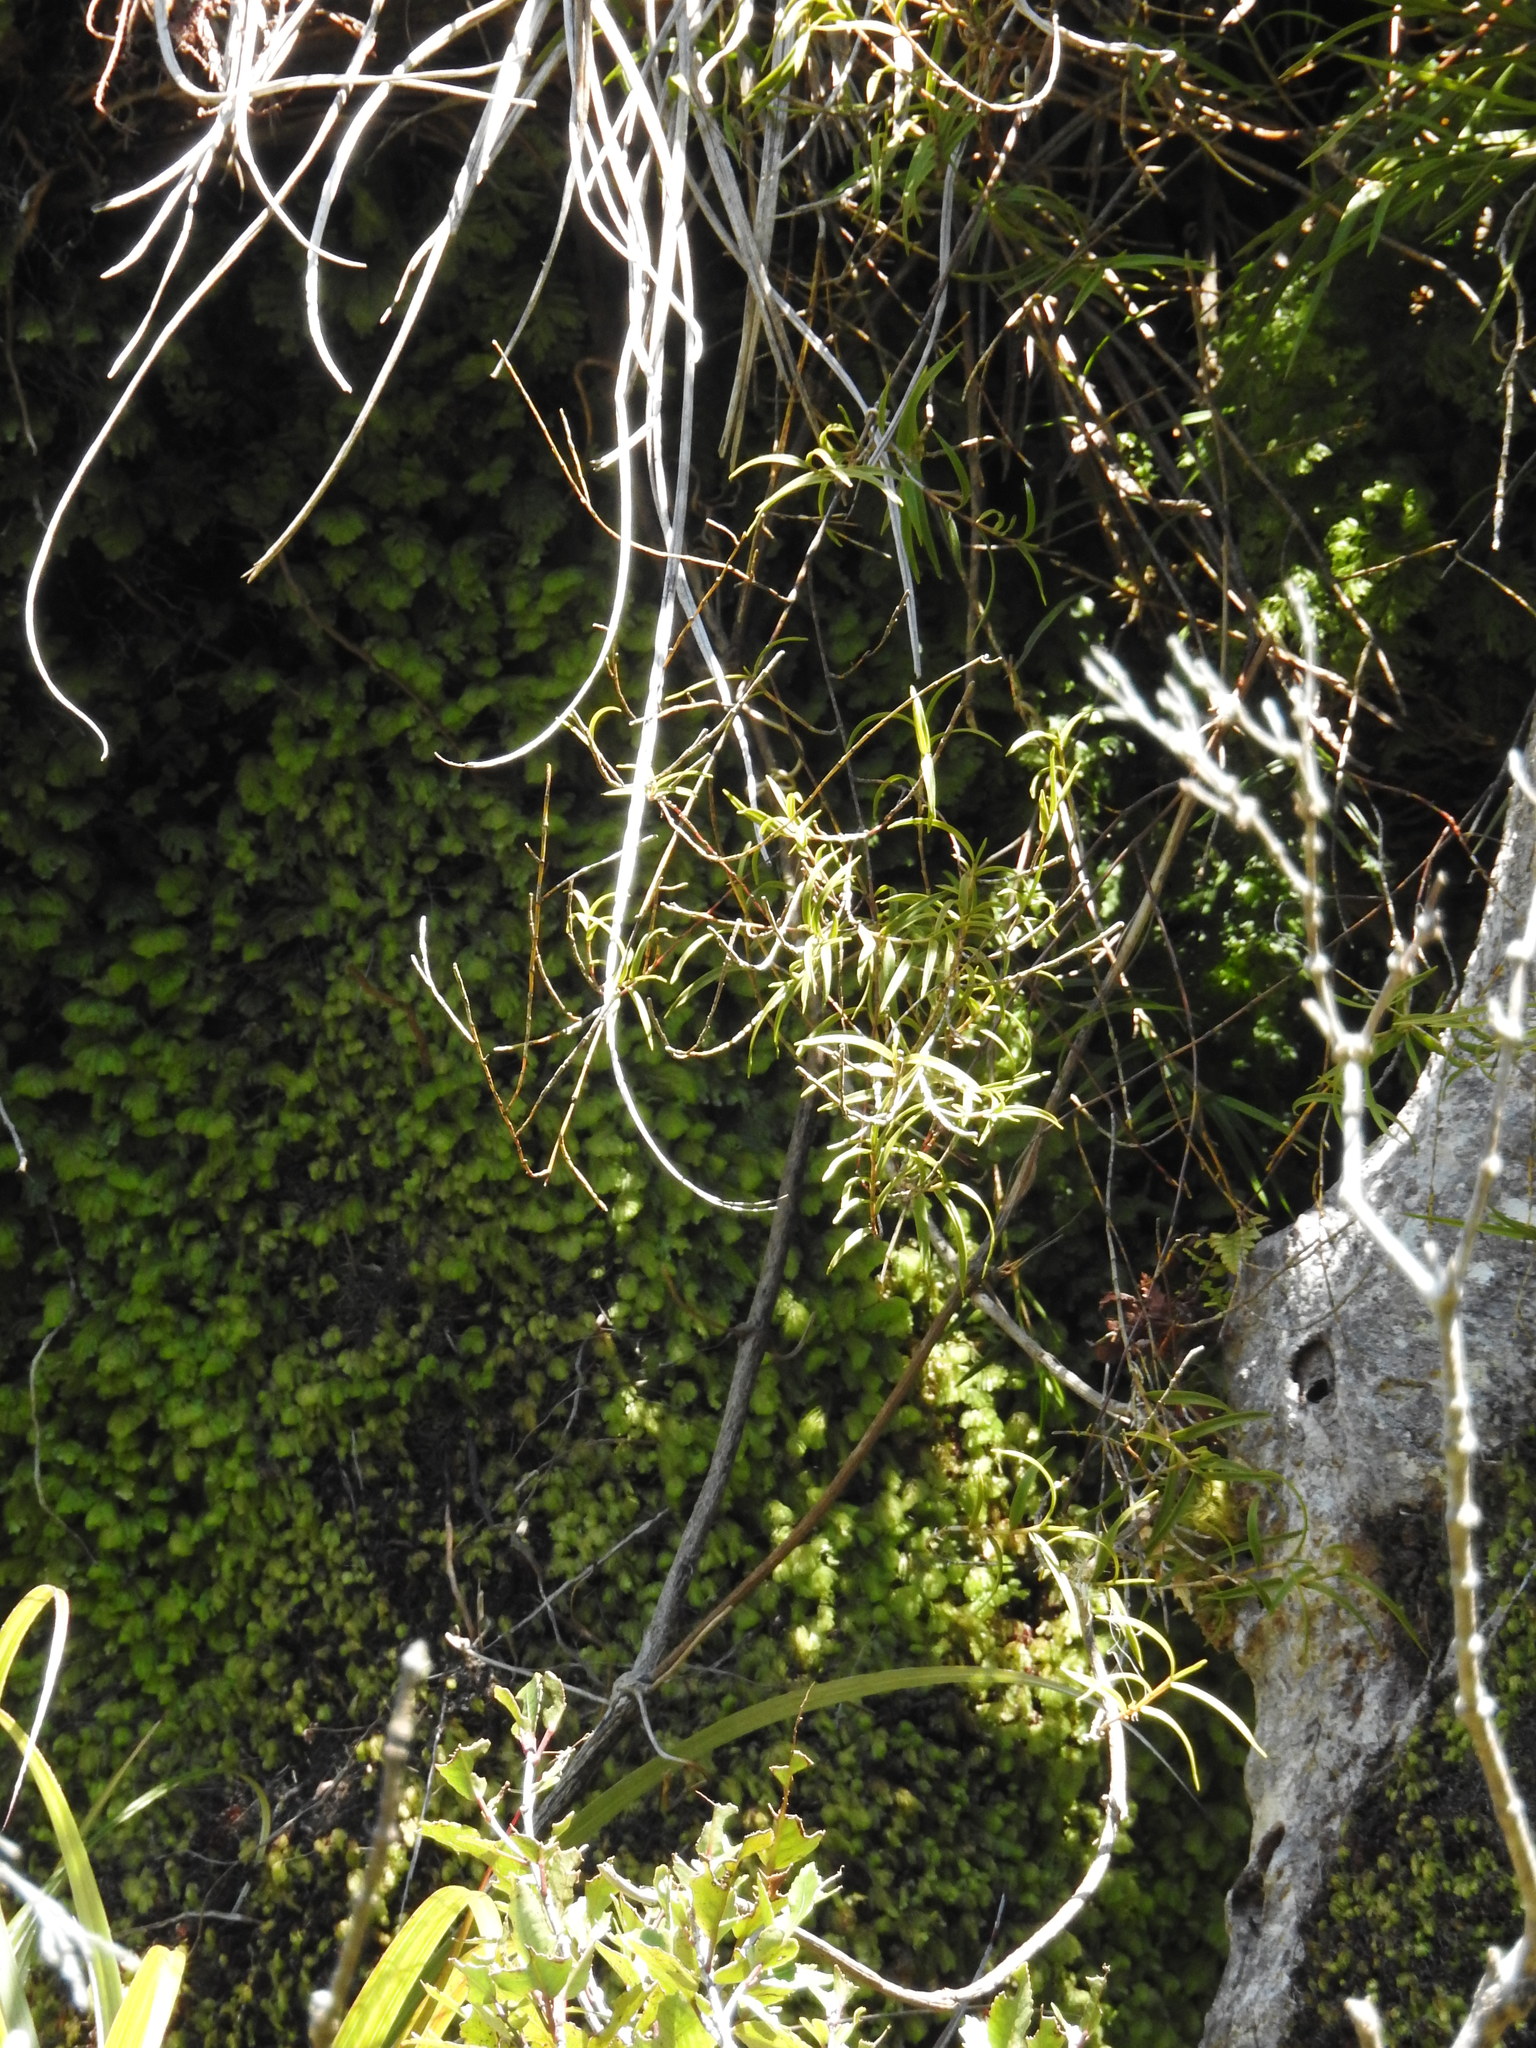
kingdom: Plantae
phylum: Tracheophyta
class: Liliopsida
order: Asparagales
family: Orchidaceae
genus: Dendrobium
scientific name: Dendrobium cunninghamii
